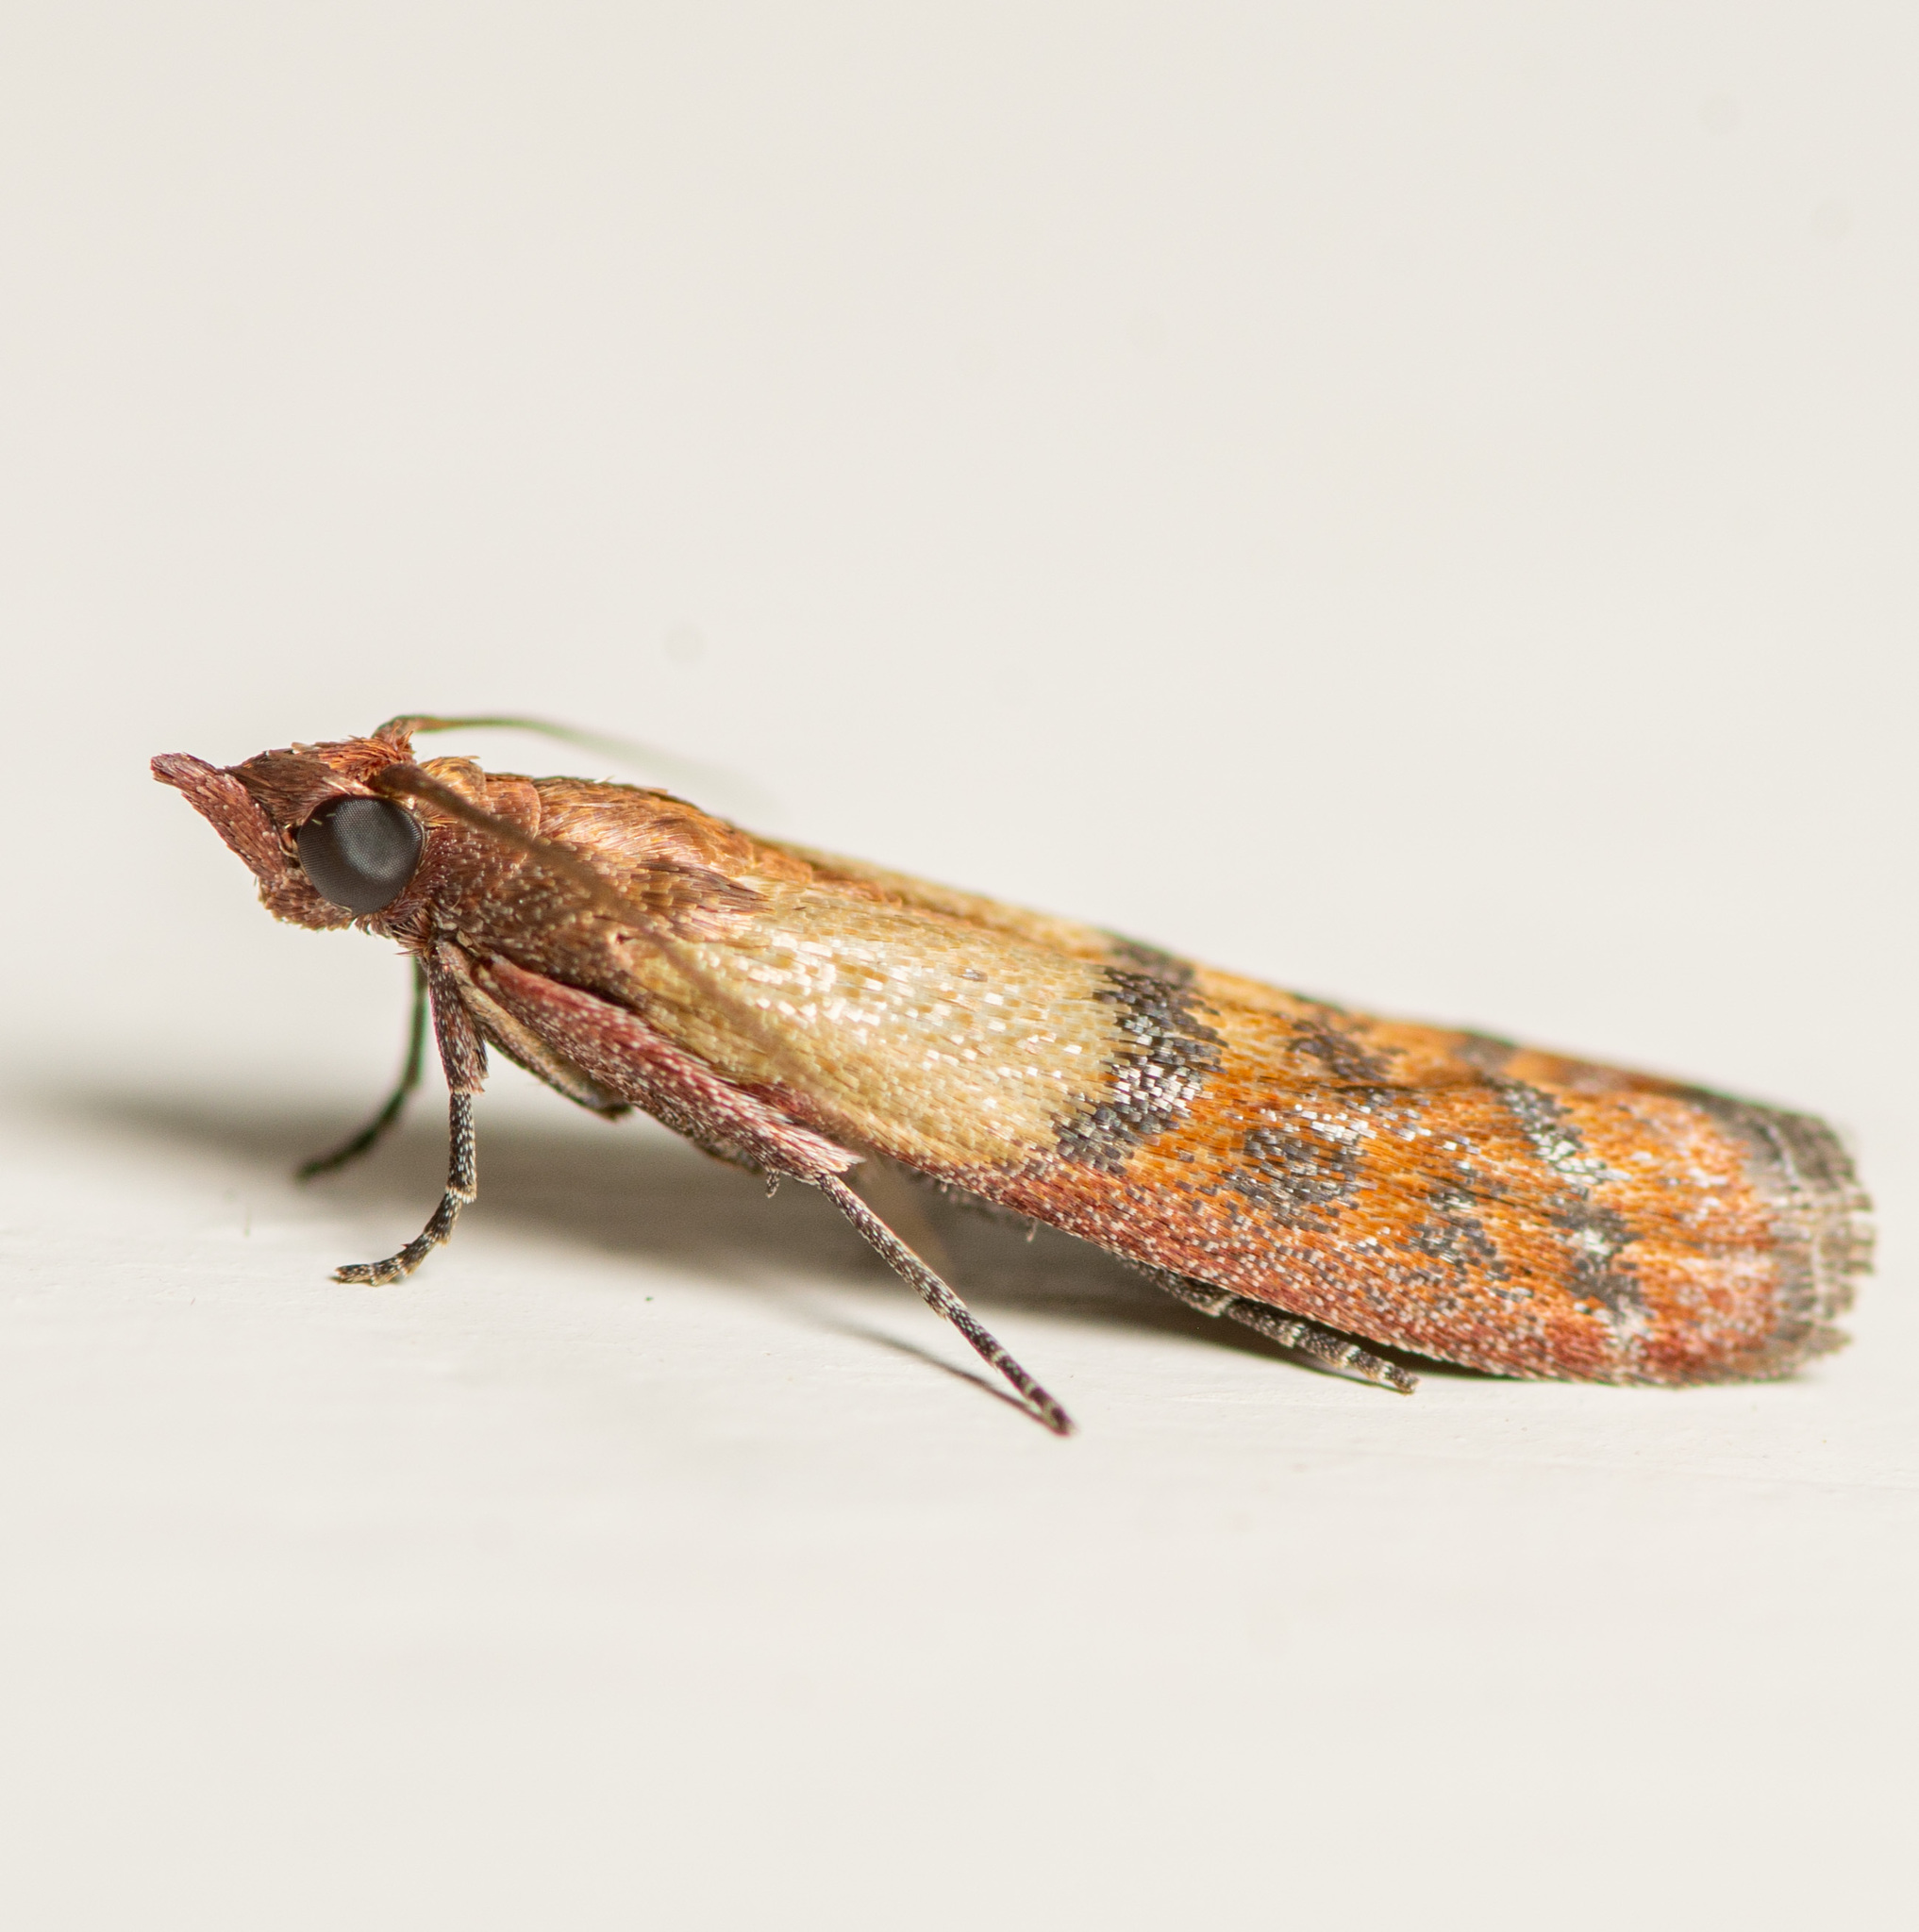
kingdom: Animalia
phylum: Arthropoda
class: Insecta
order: Lepidoptera
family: Pyralidae
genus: Plodia
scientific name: Plodia interpunctella
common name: Indian meal moth
